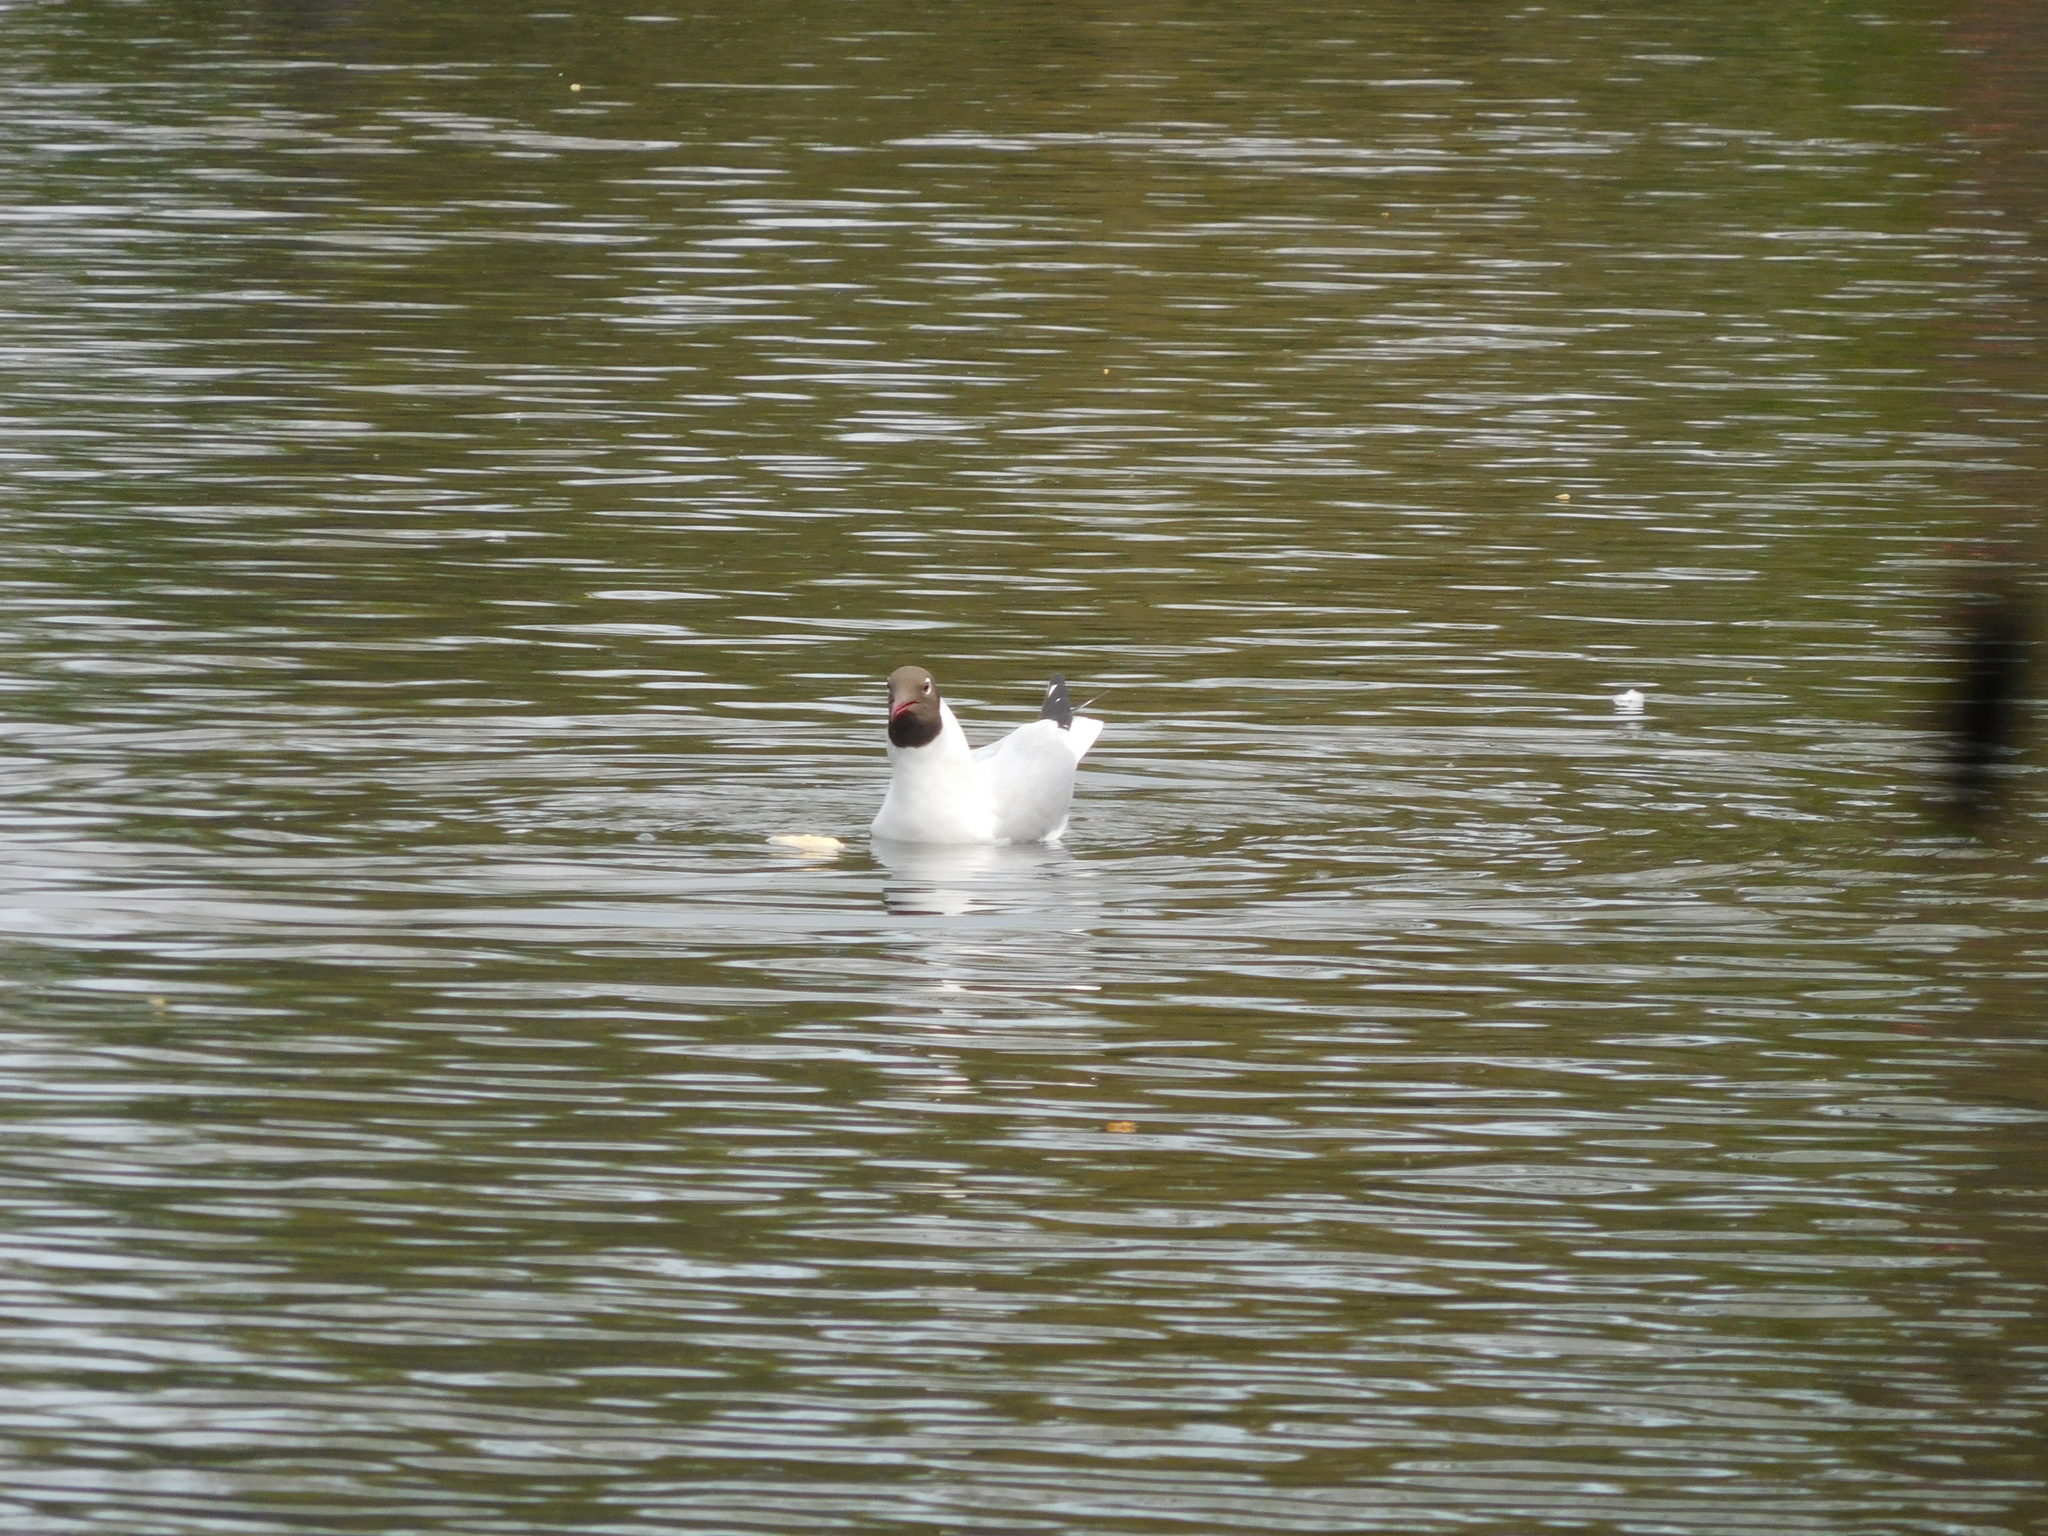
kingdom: Animalia
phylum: Chordata
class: Aves
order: Charadriiformes
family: Laridae
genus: Chroicocephalus
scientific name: Chroicocephalus ridibundus
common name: Black-headed gull
